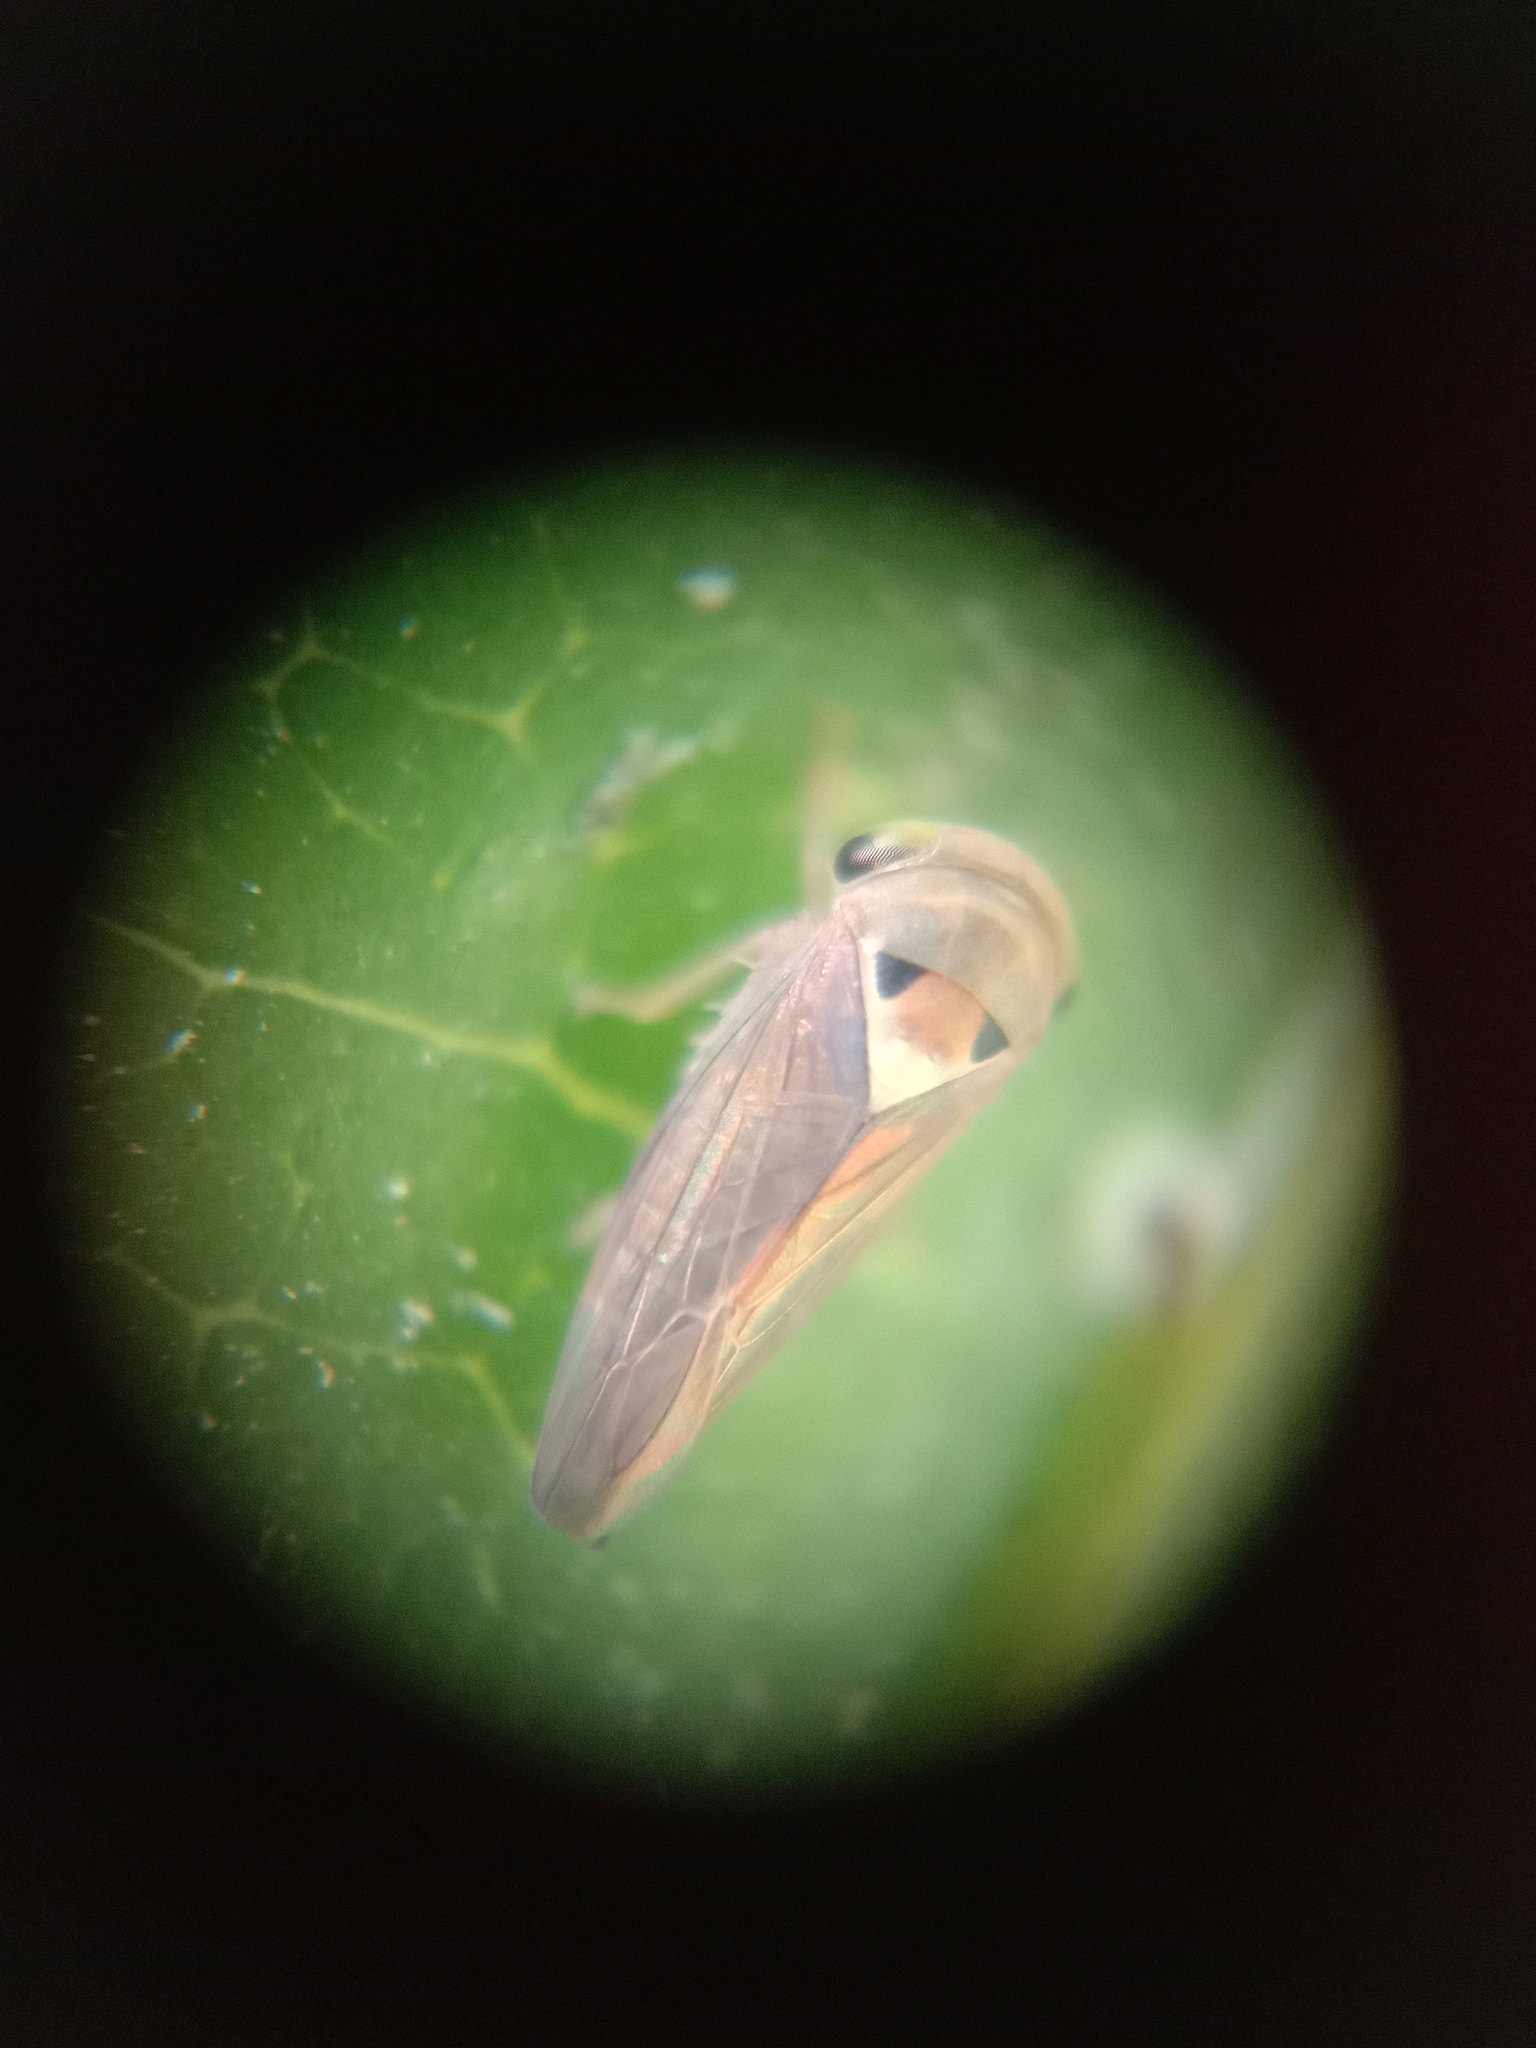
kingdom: Animalia
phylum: Arthropoda
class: Insecta
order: Hemiptera
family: Cicadellidae
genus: Idioscopus
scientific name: Idioscopus clypealis
